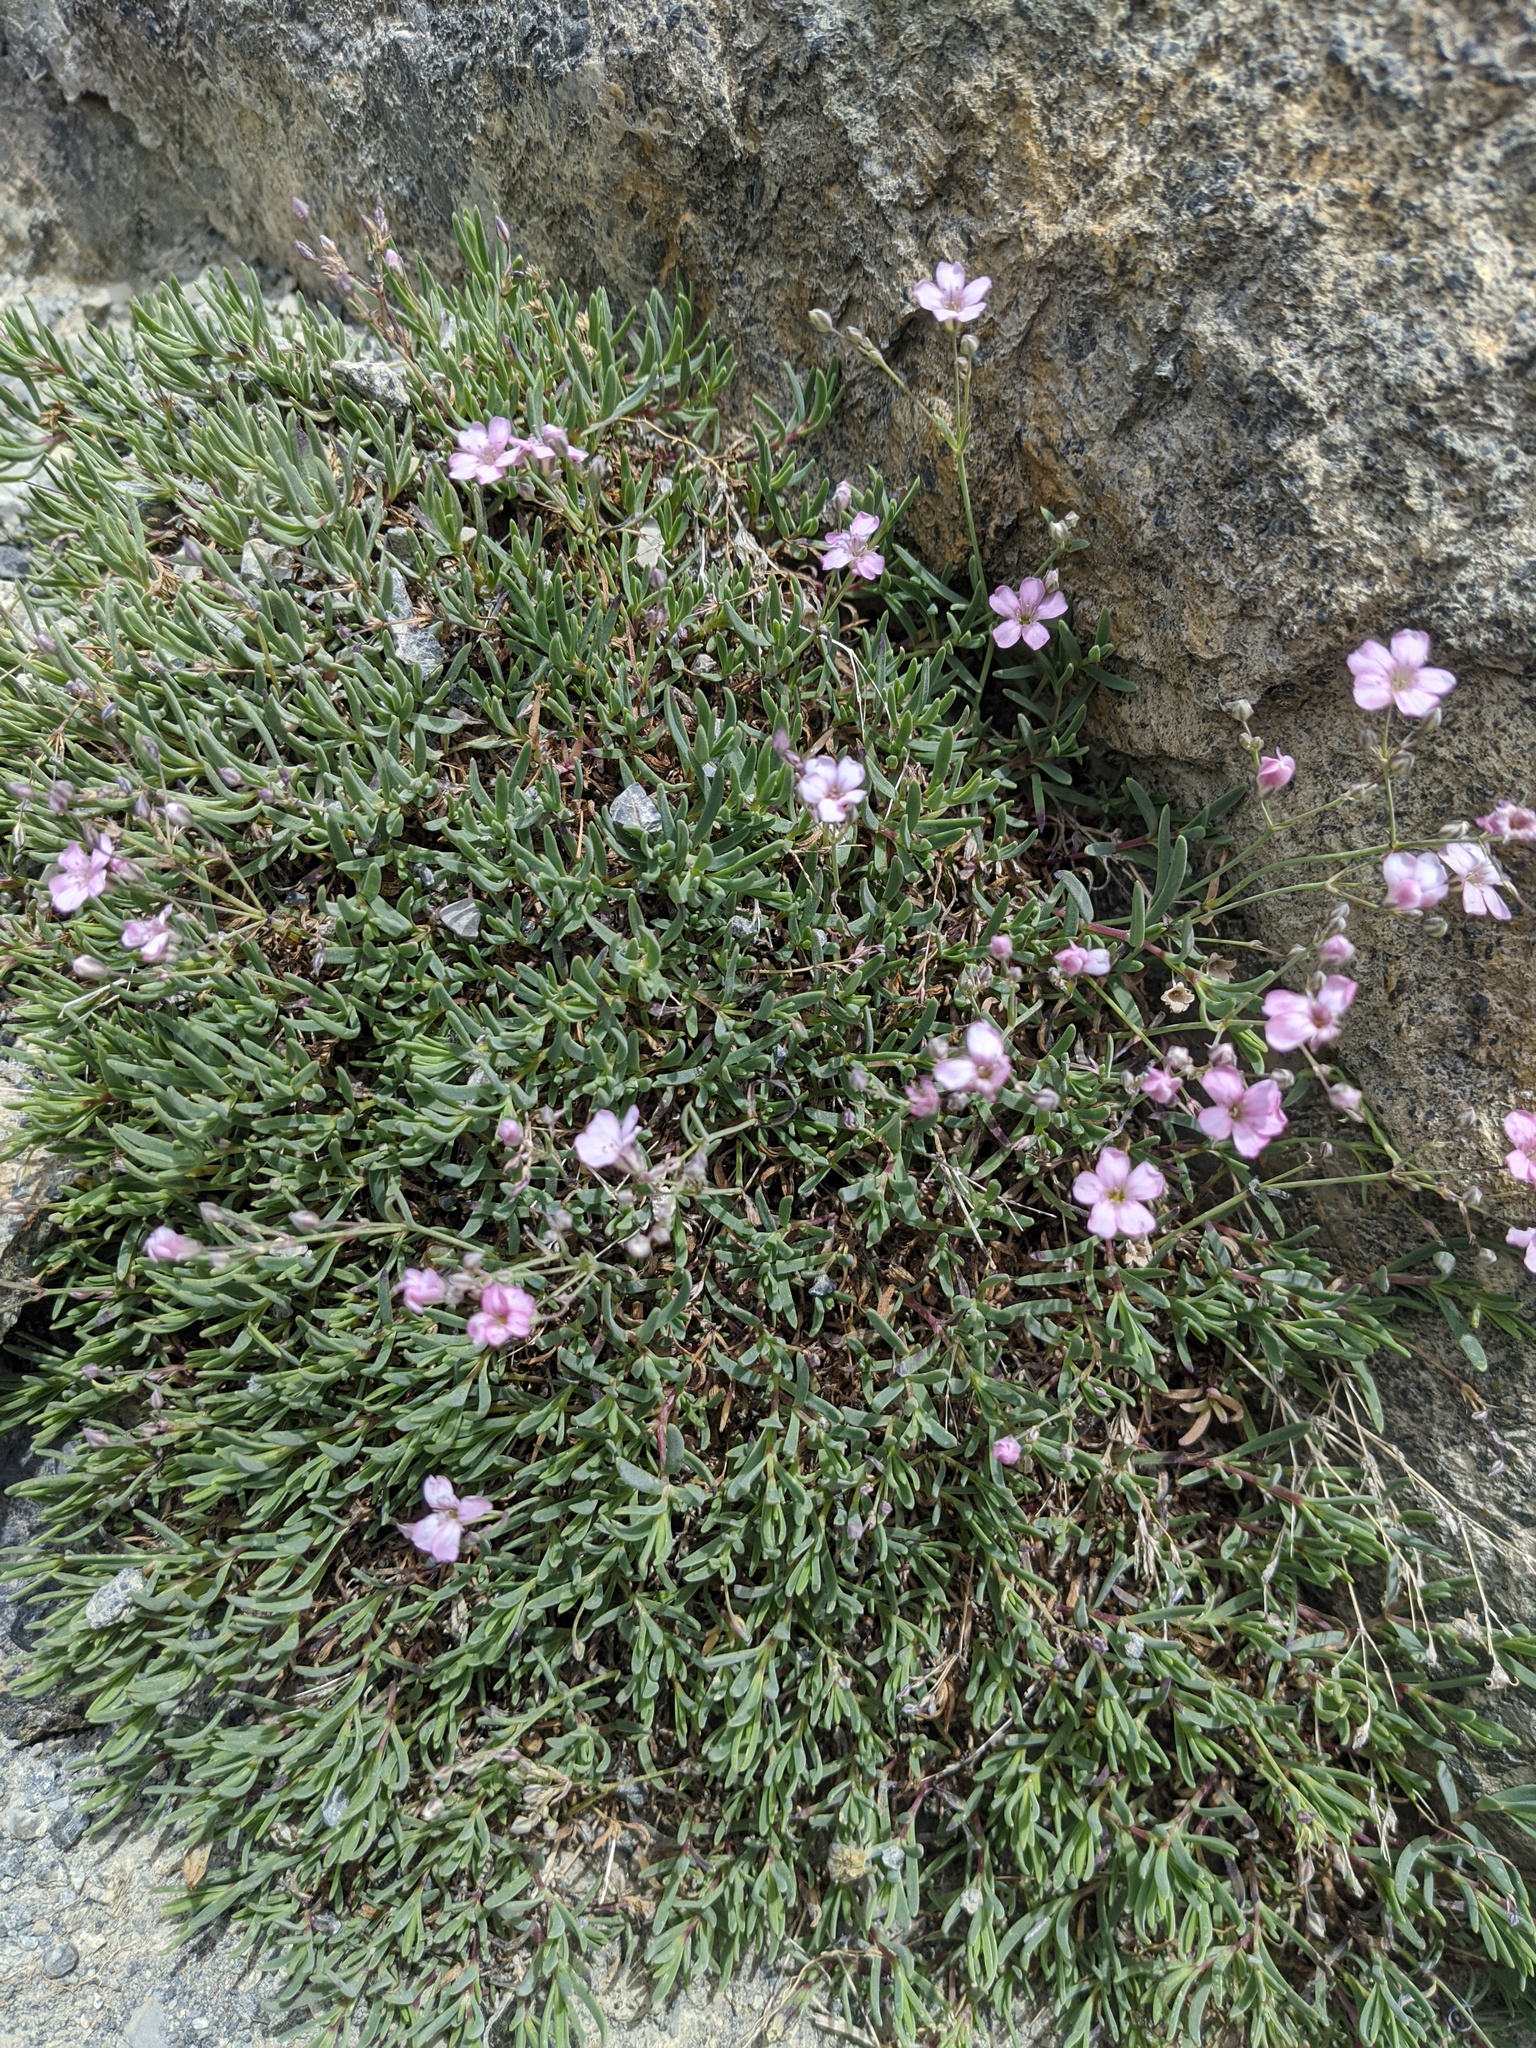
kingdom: Plantae
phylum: Tracheophyta
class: Magnoliopsida
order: Caryophyllales
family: Caryophyllaceae
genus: Gypsophila
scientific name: Gypsophila repens
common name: Creeping baby's-breath
